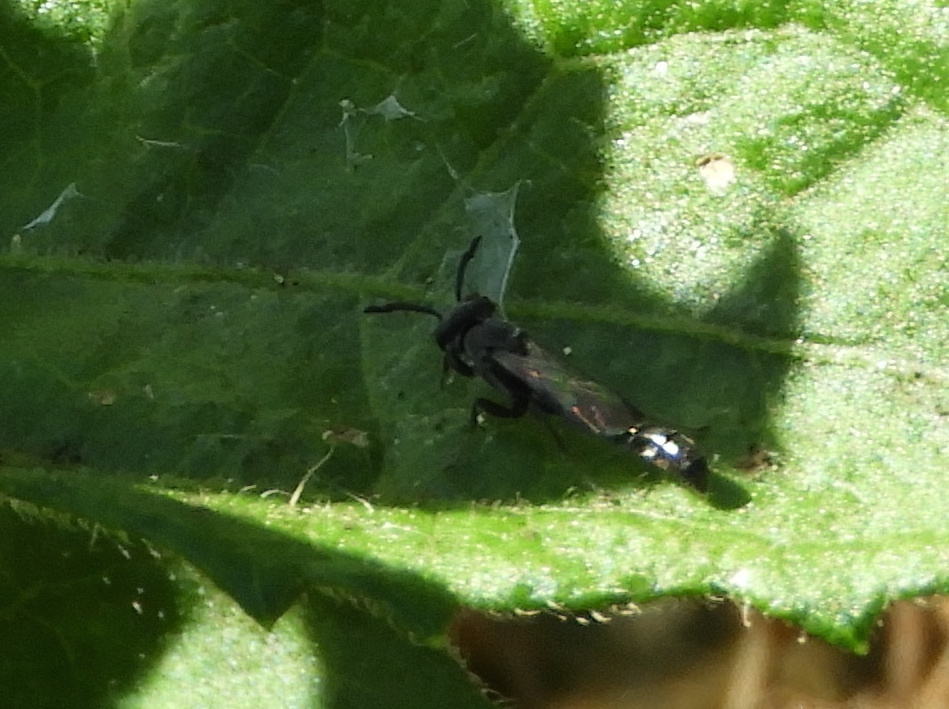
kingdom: Animalia
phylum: Arthropoda
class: Insecta
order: Hymenoptera
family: Crabronidae
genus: Trypoxylon
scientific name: Trypoxylon
